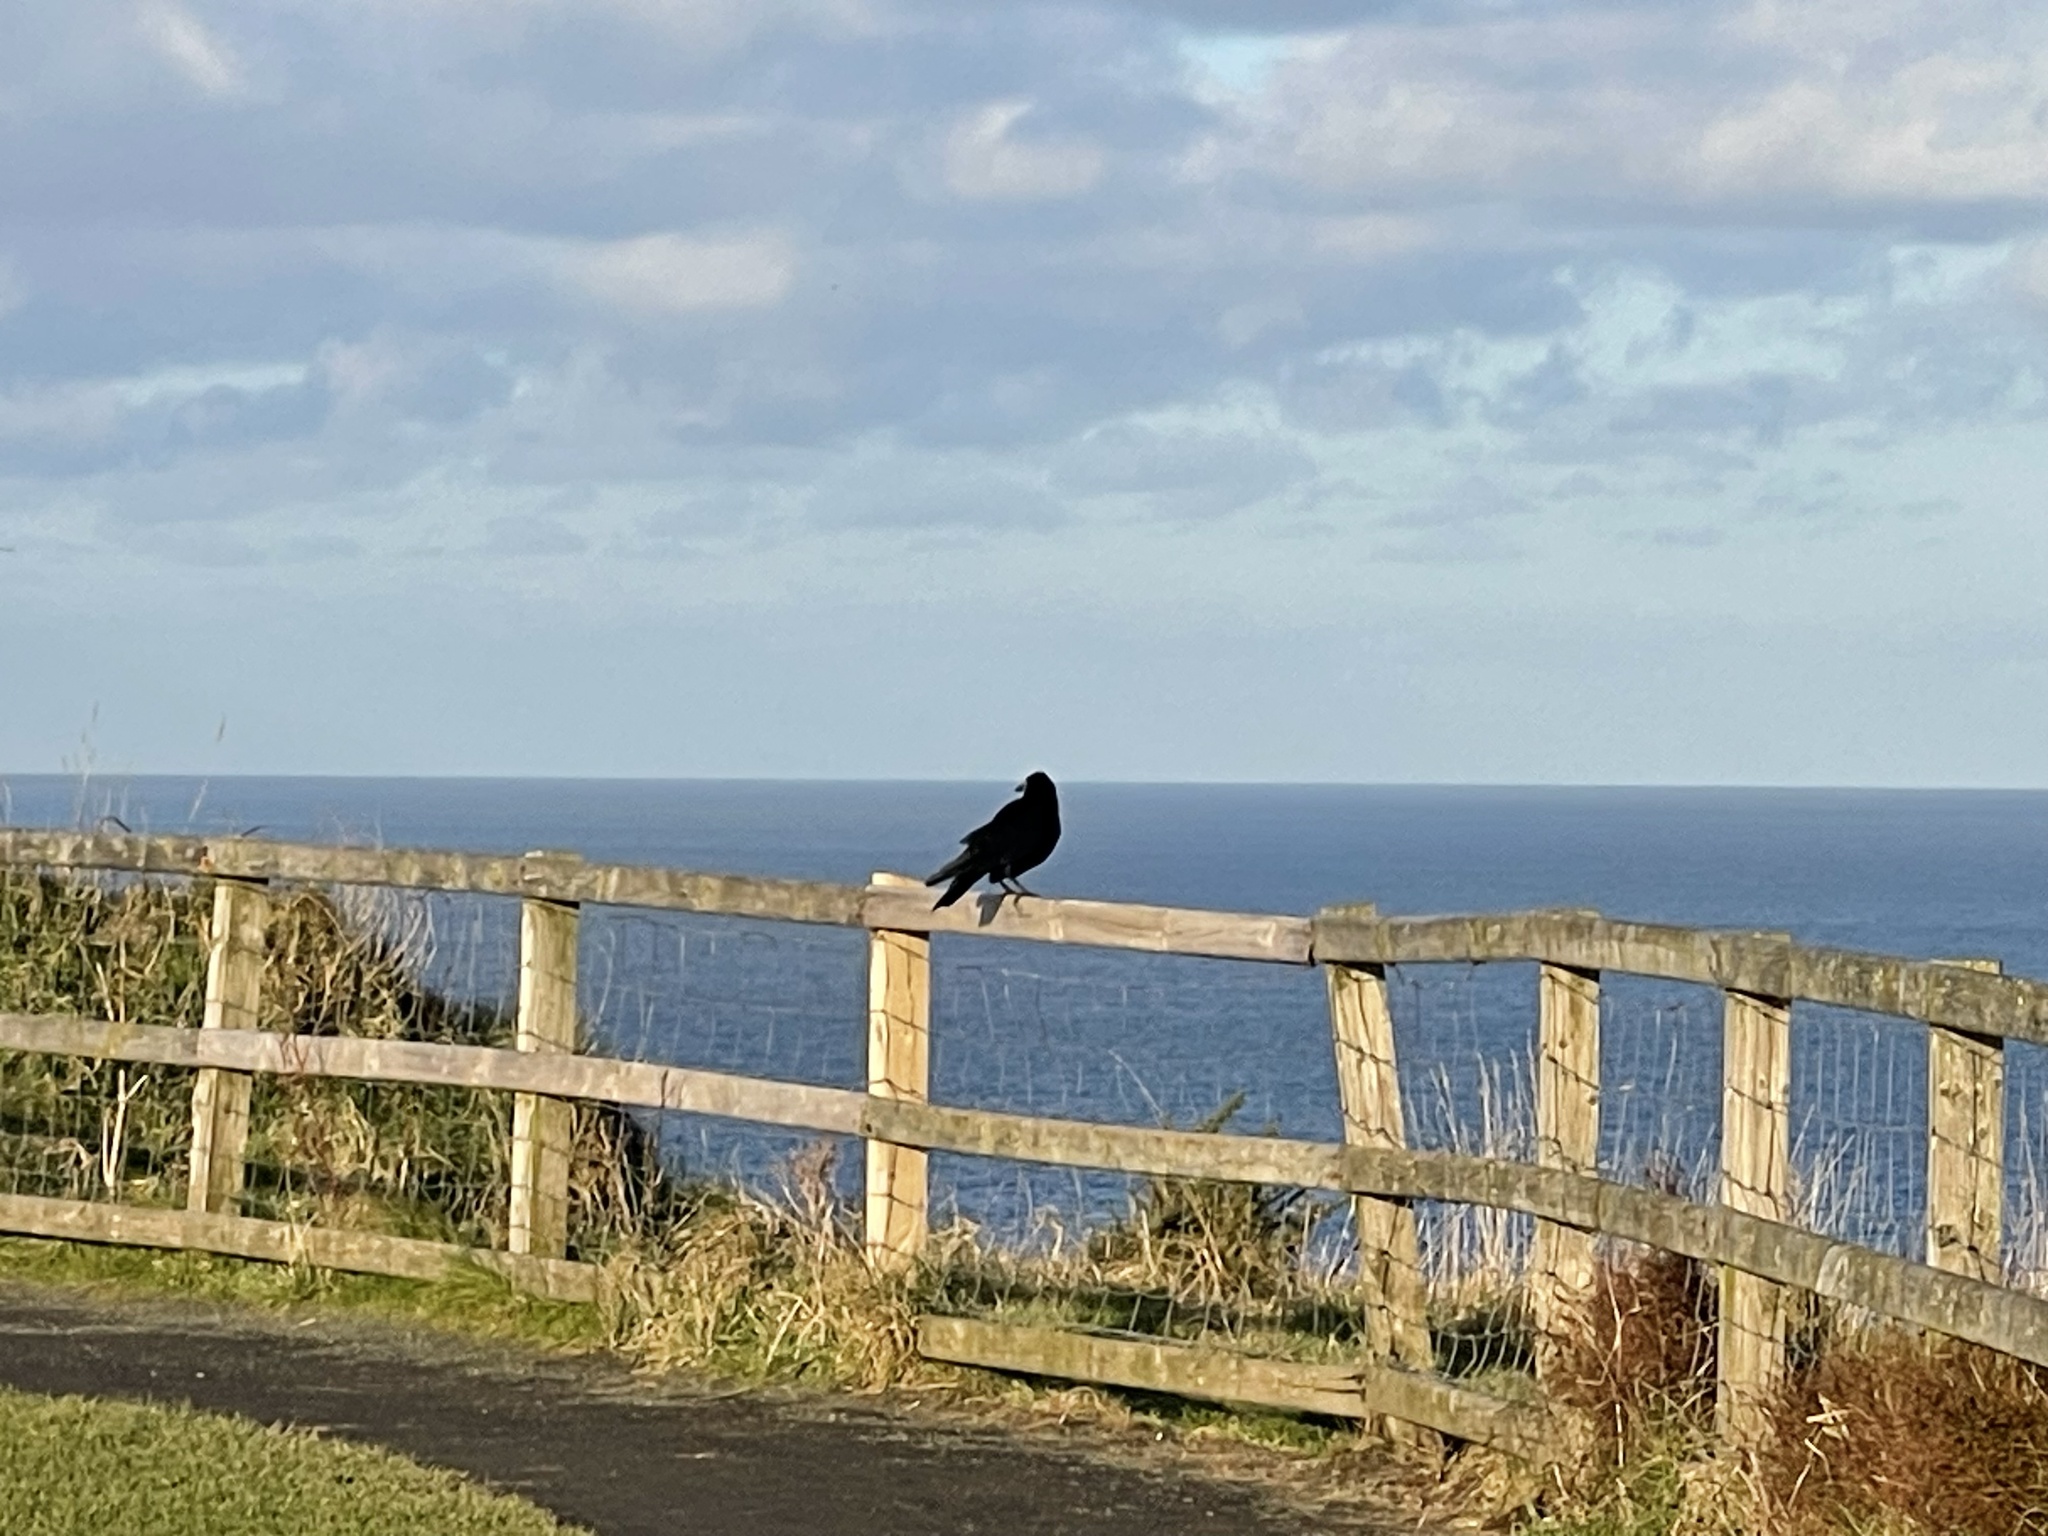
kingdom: Animalia
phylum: Chordata
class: Aves
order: Passeriformes
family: Corvidae
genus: Corvus
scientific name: Corvus frugilegus
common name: Rook
